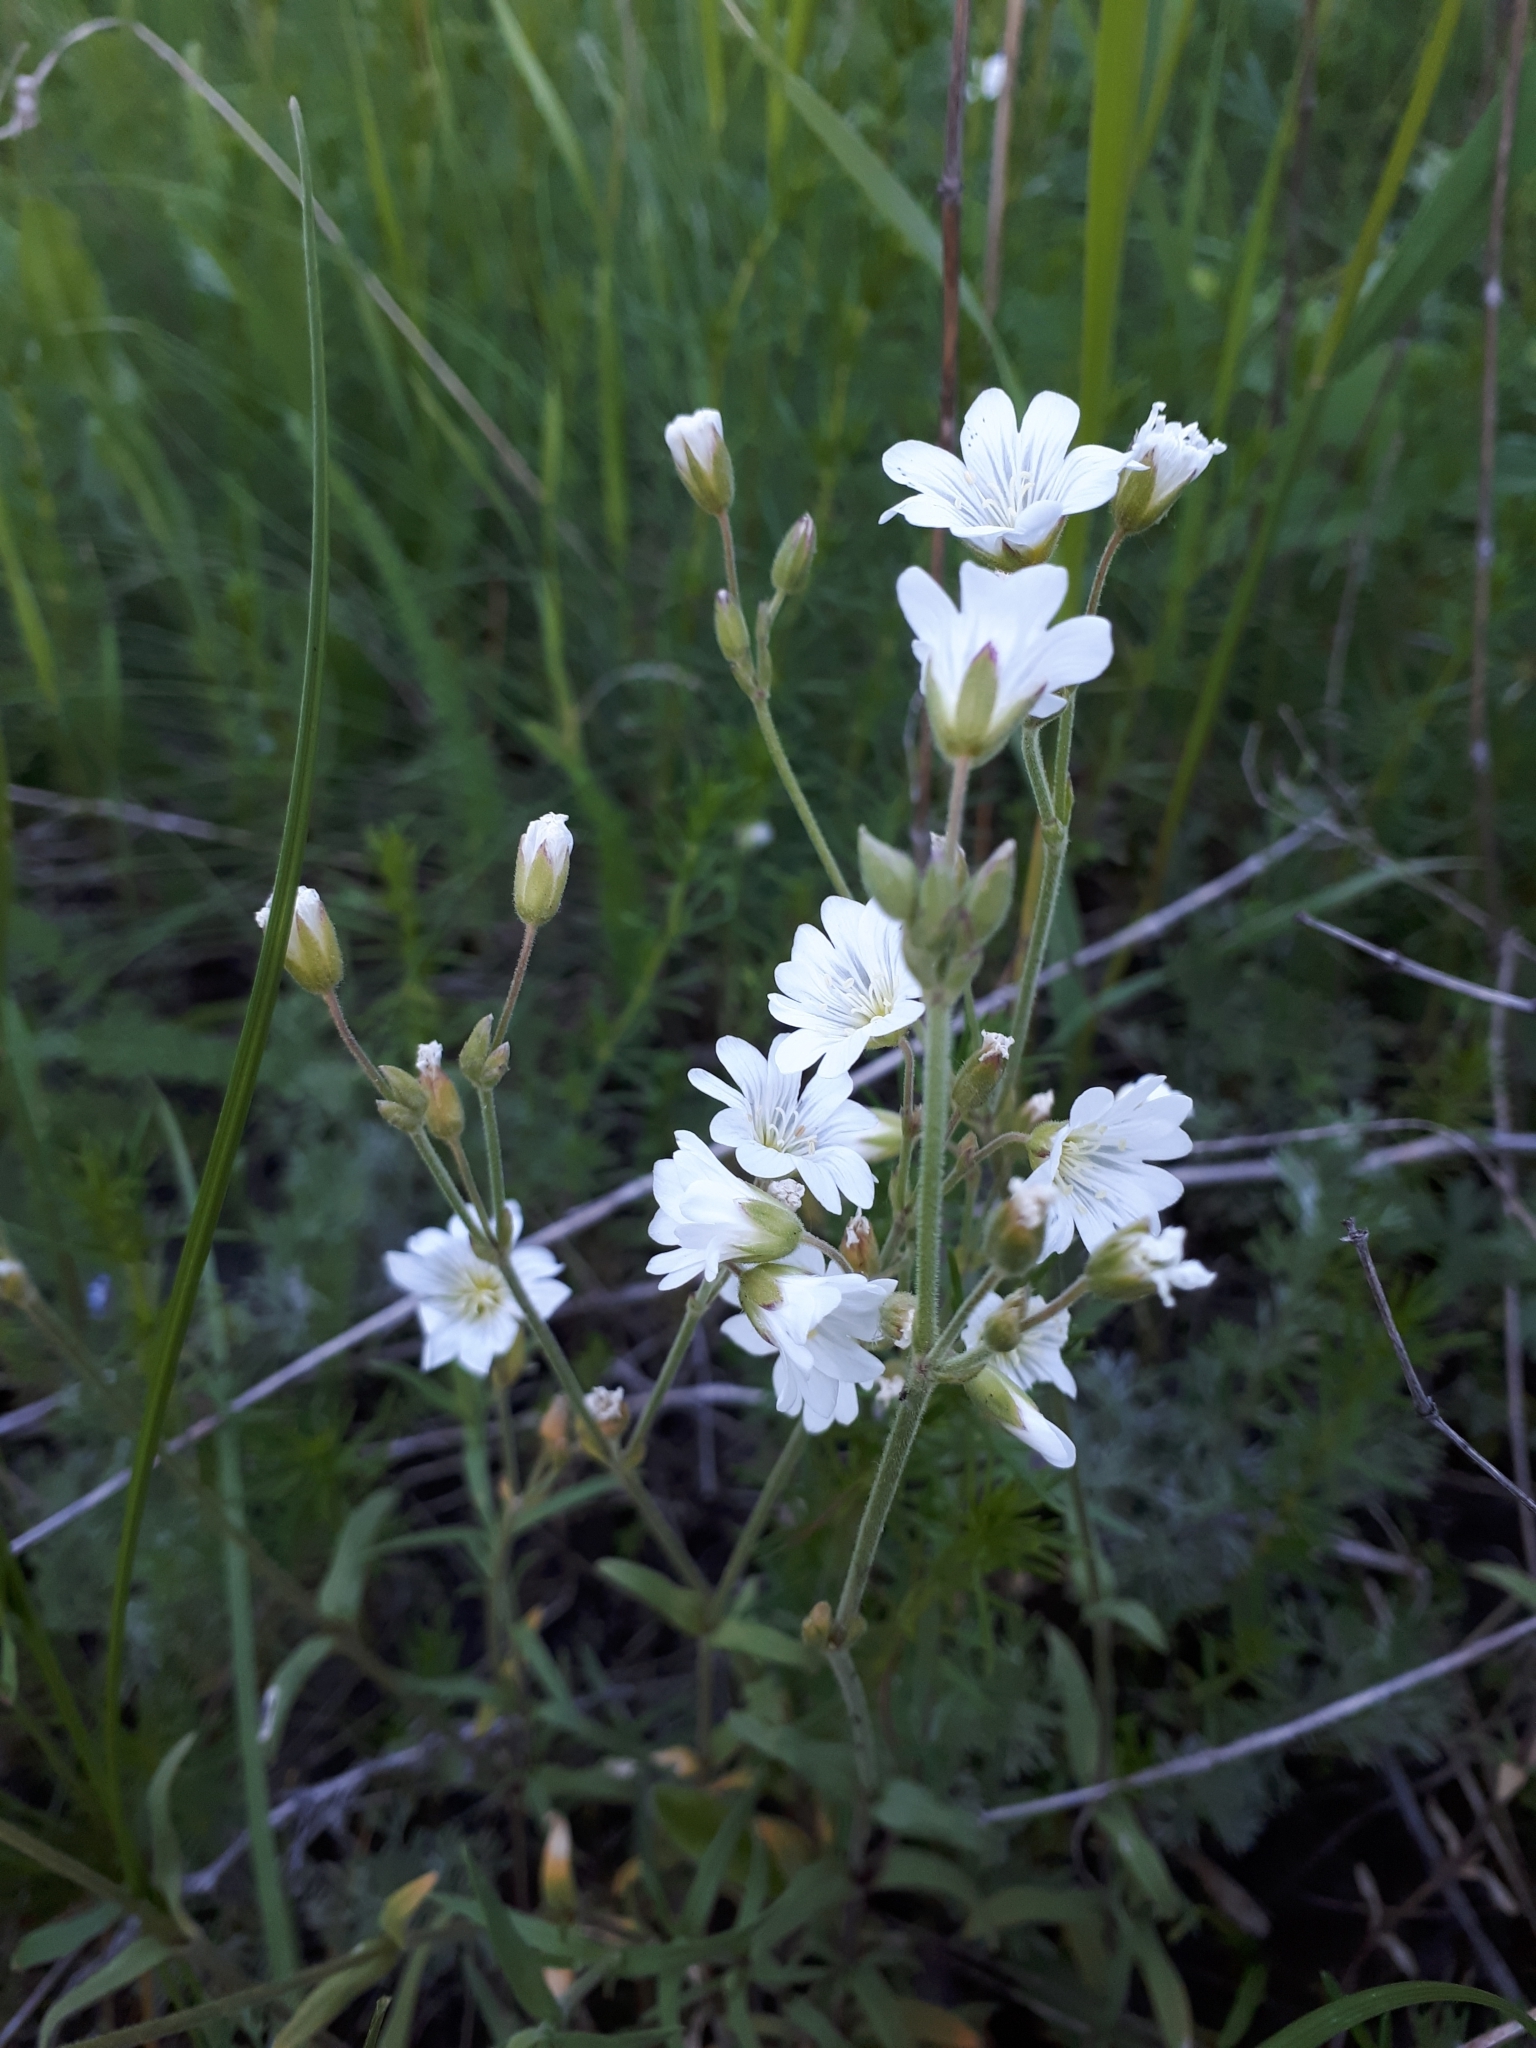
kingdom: Plantae
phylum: Tracheophyta
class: Magnoliopsida
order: Caryophyllales
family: Caryophyllaceae
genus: Cerastium
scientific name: Cerastium arvense
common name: Field mouse-ear
